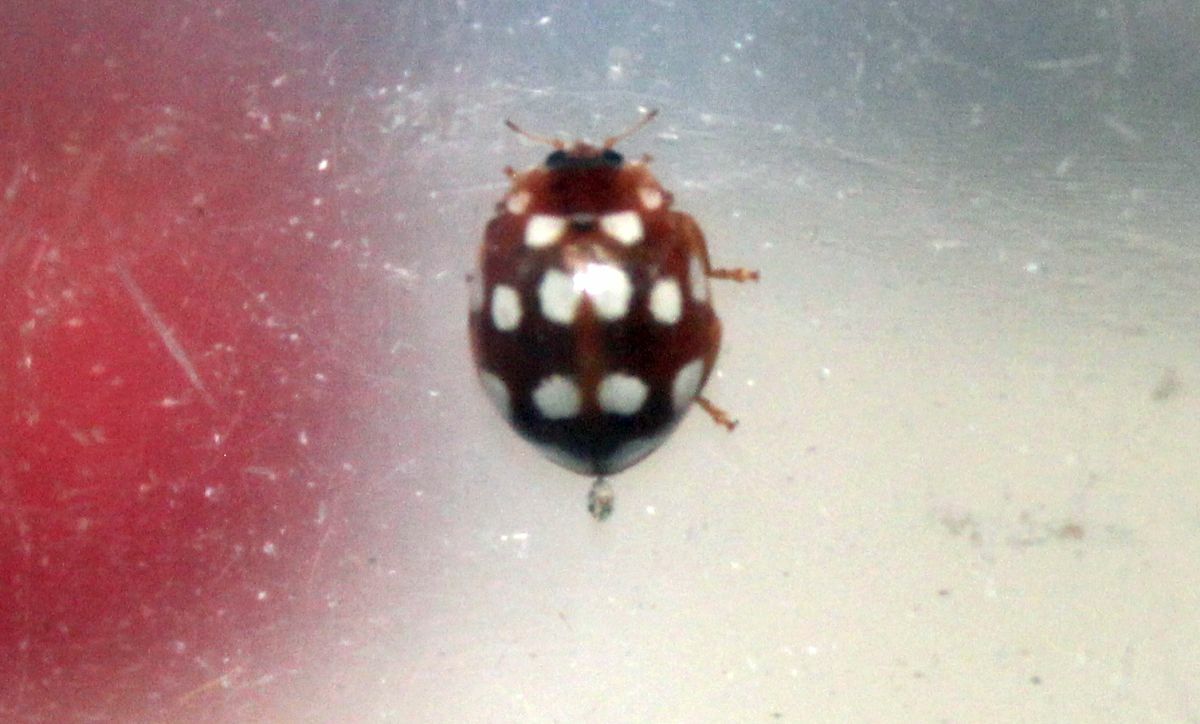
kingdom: Animalia
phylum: Arthropoda
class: Insecta
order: Coleoptera
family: Coccinellidae
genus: Calvia
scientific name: Calvia quatuordecimguttata
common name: Cream-spot ladybird
